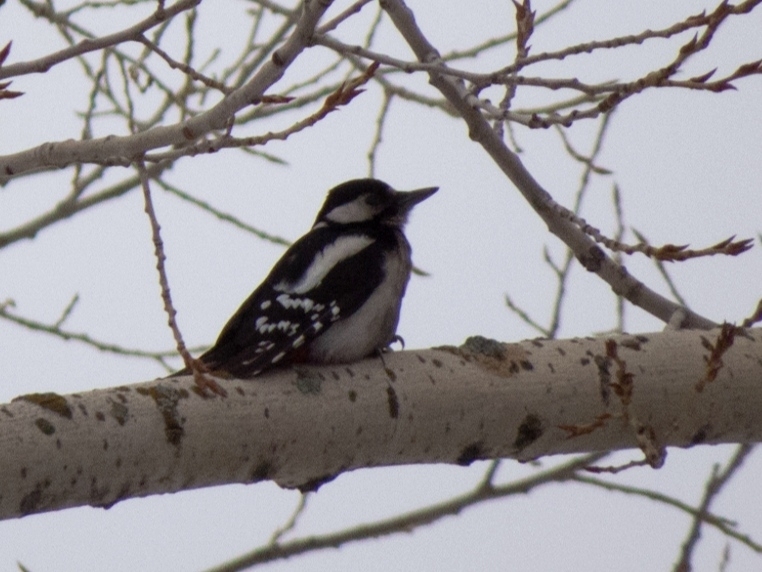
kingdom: Animalia
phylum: Chordata
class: Aves
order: Piciformes
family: Picidae
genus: Dendrocopos
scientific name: Dendrocopos major
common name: Great spotted woodpecker
